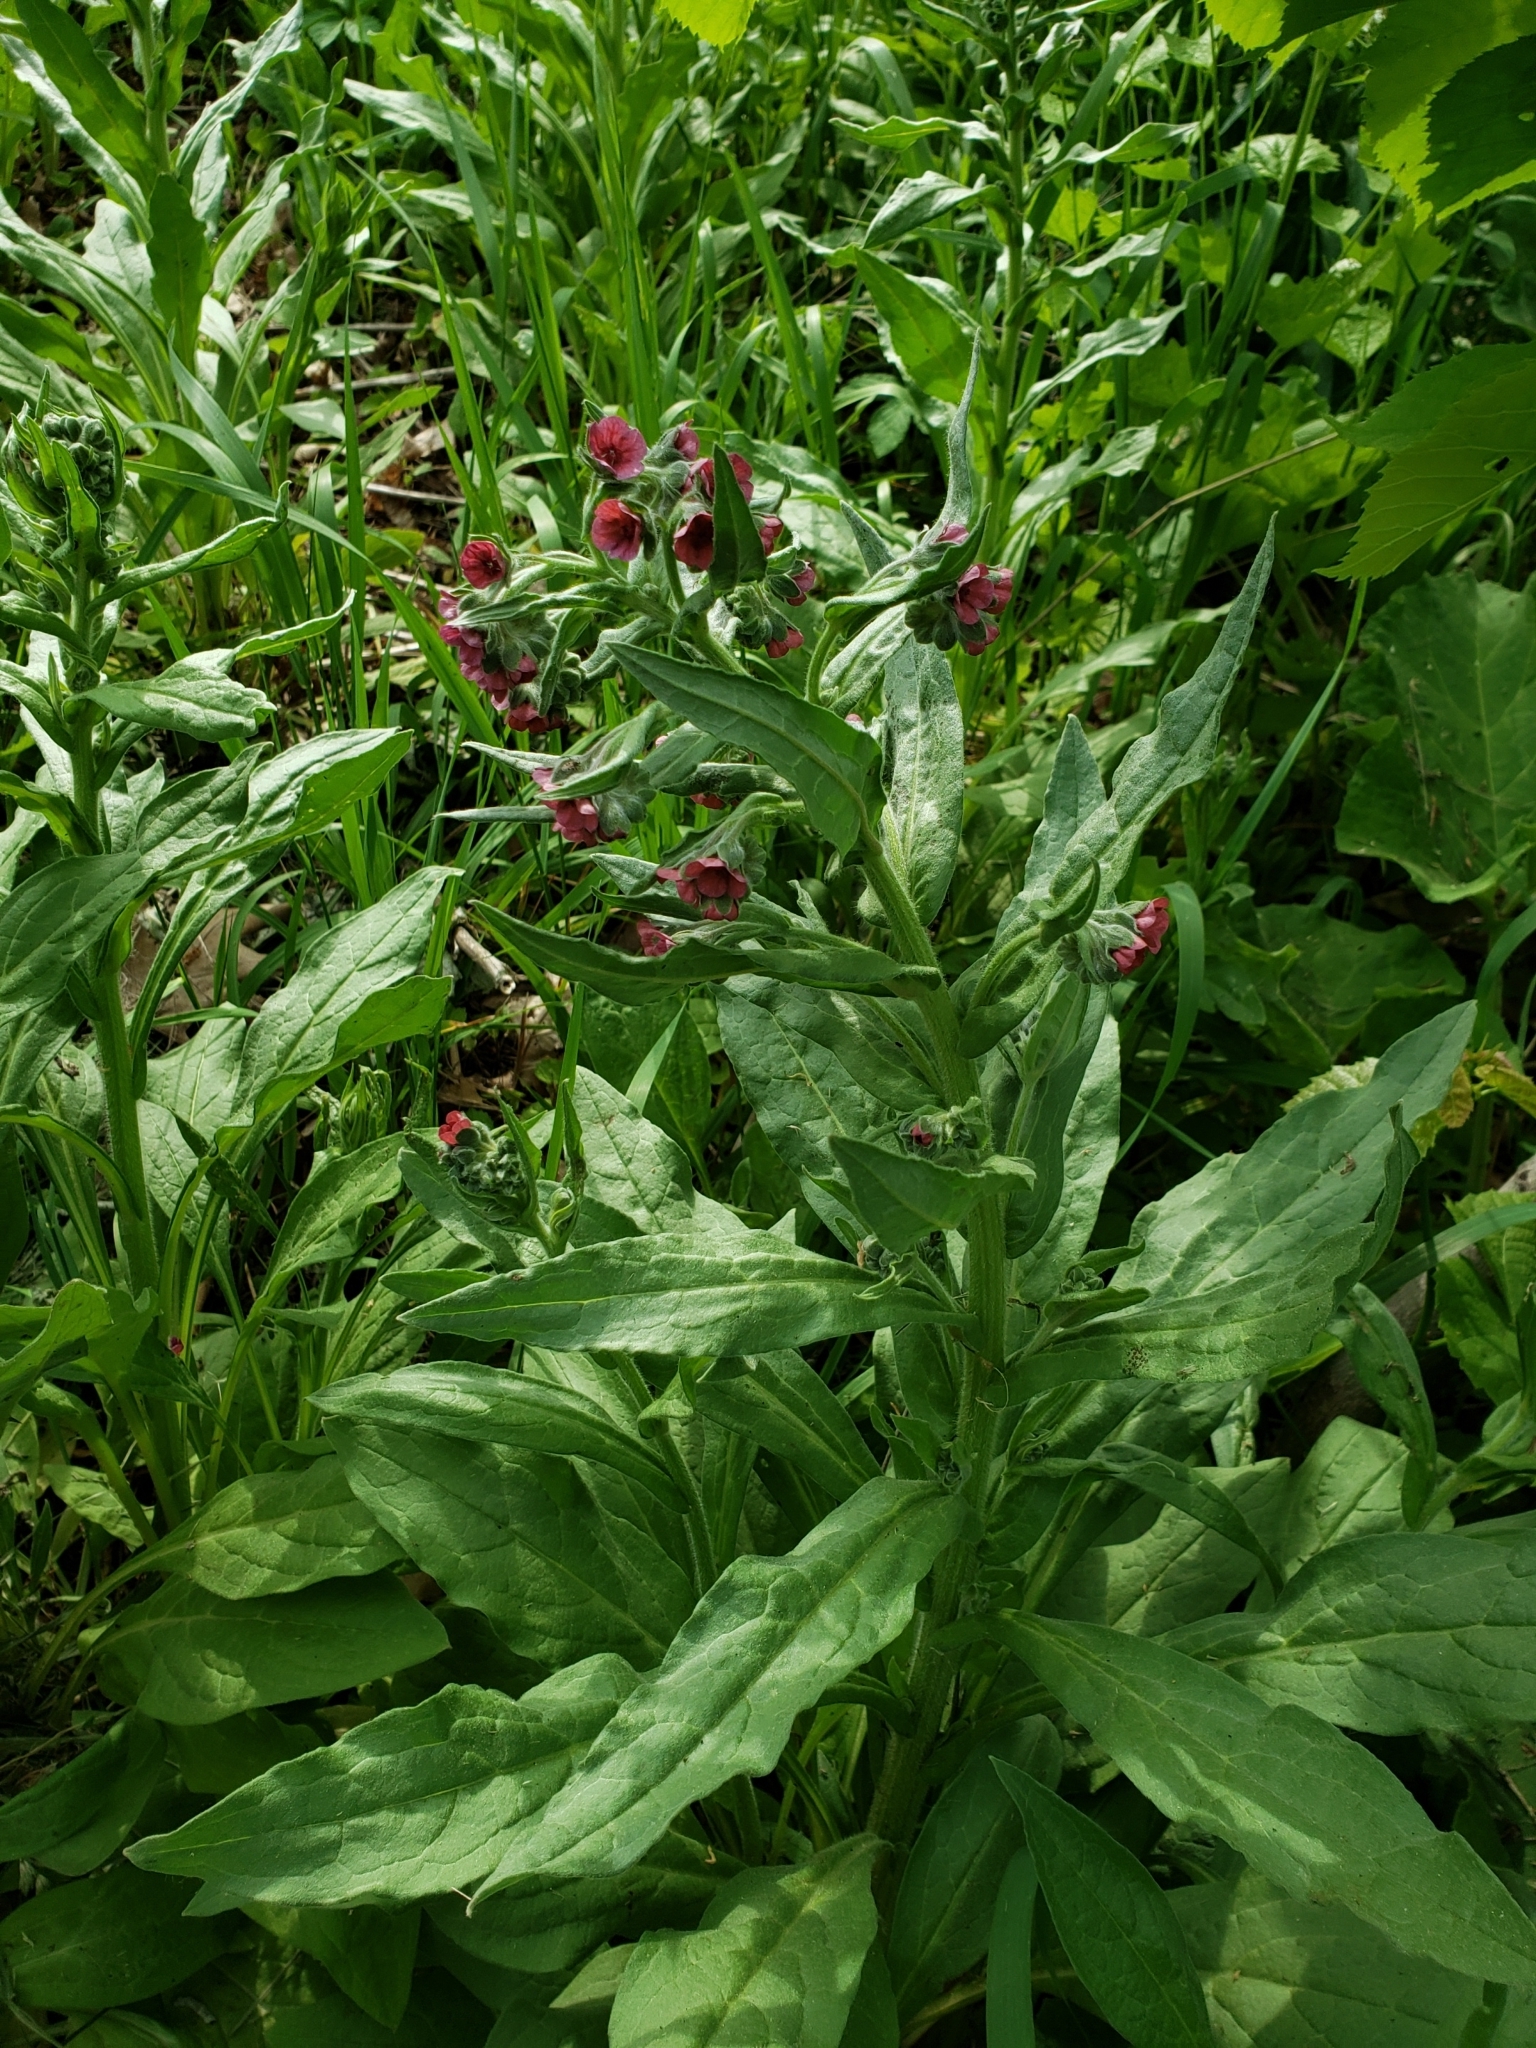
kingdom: Plantae
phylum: Tracheophyta
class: Magnoliopsida
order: Boraginales
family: Boraginaceae
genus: Cynoglossum
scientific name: Cynoglossum officinale
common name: Hound's-tongue
